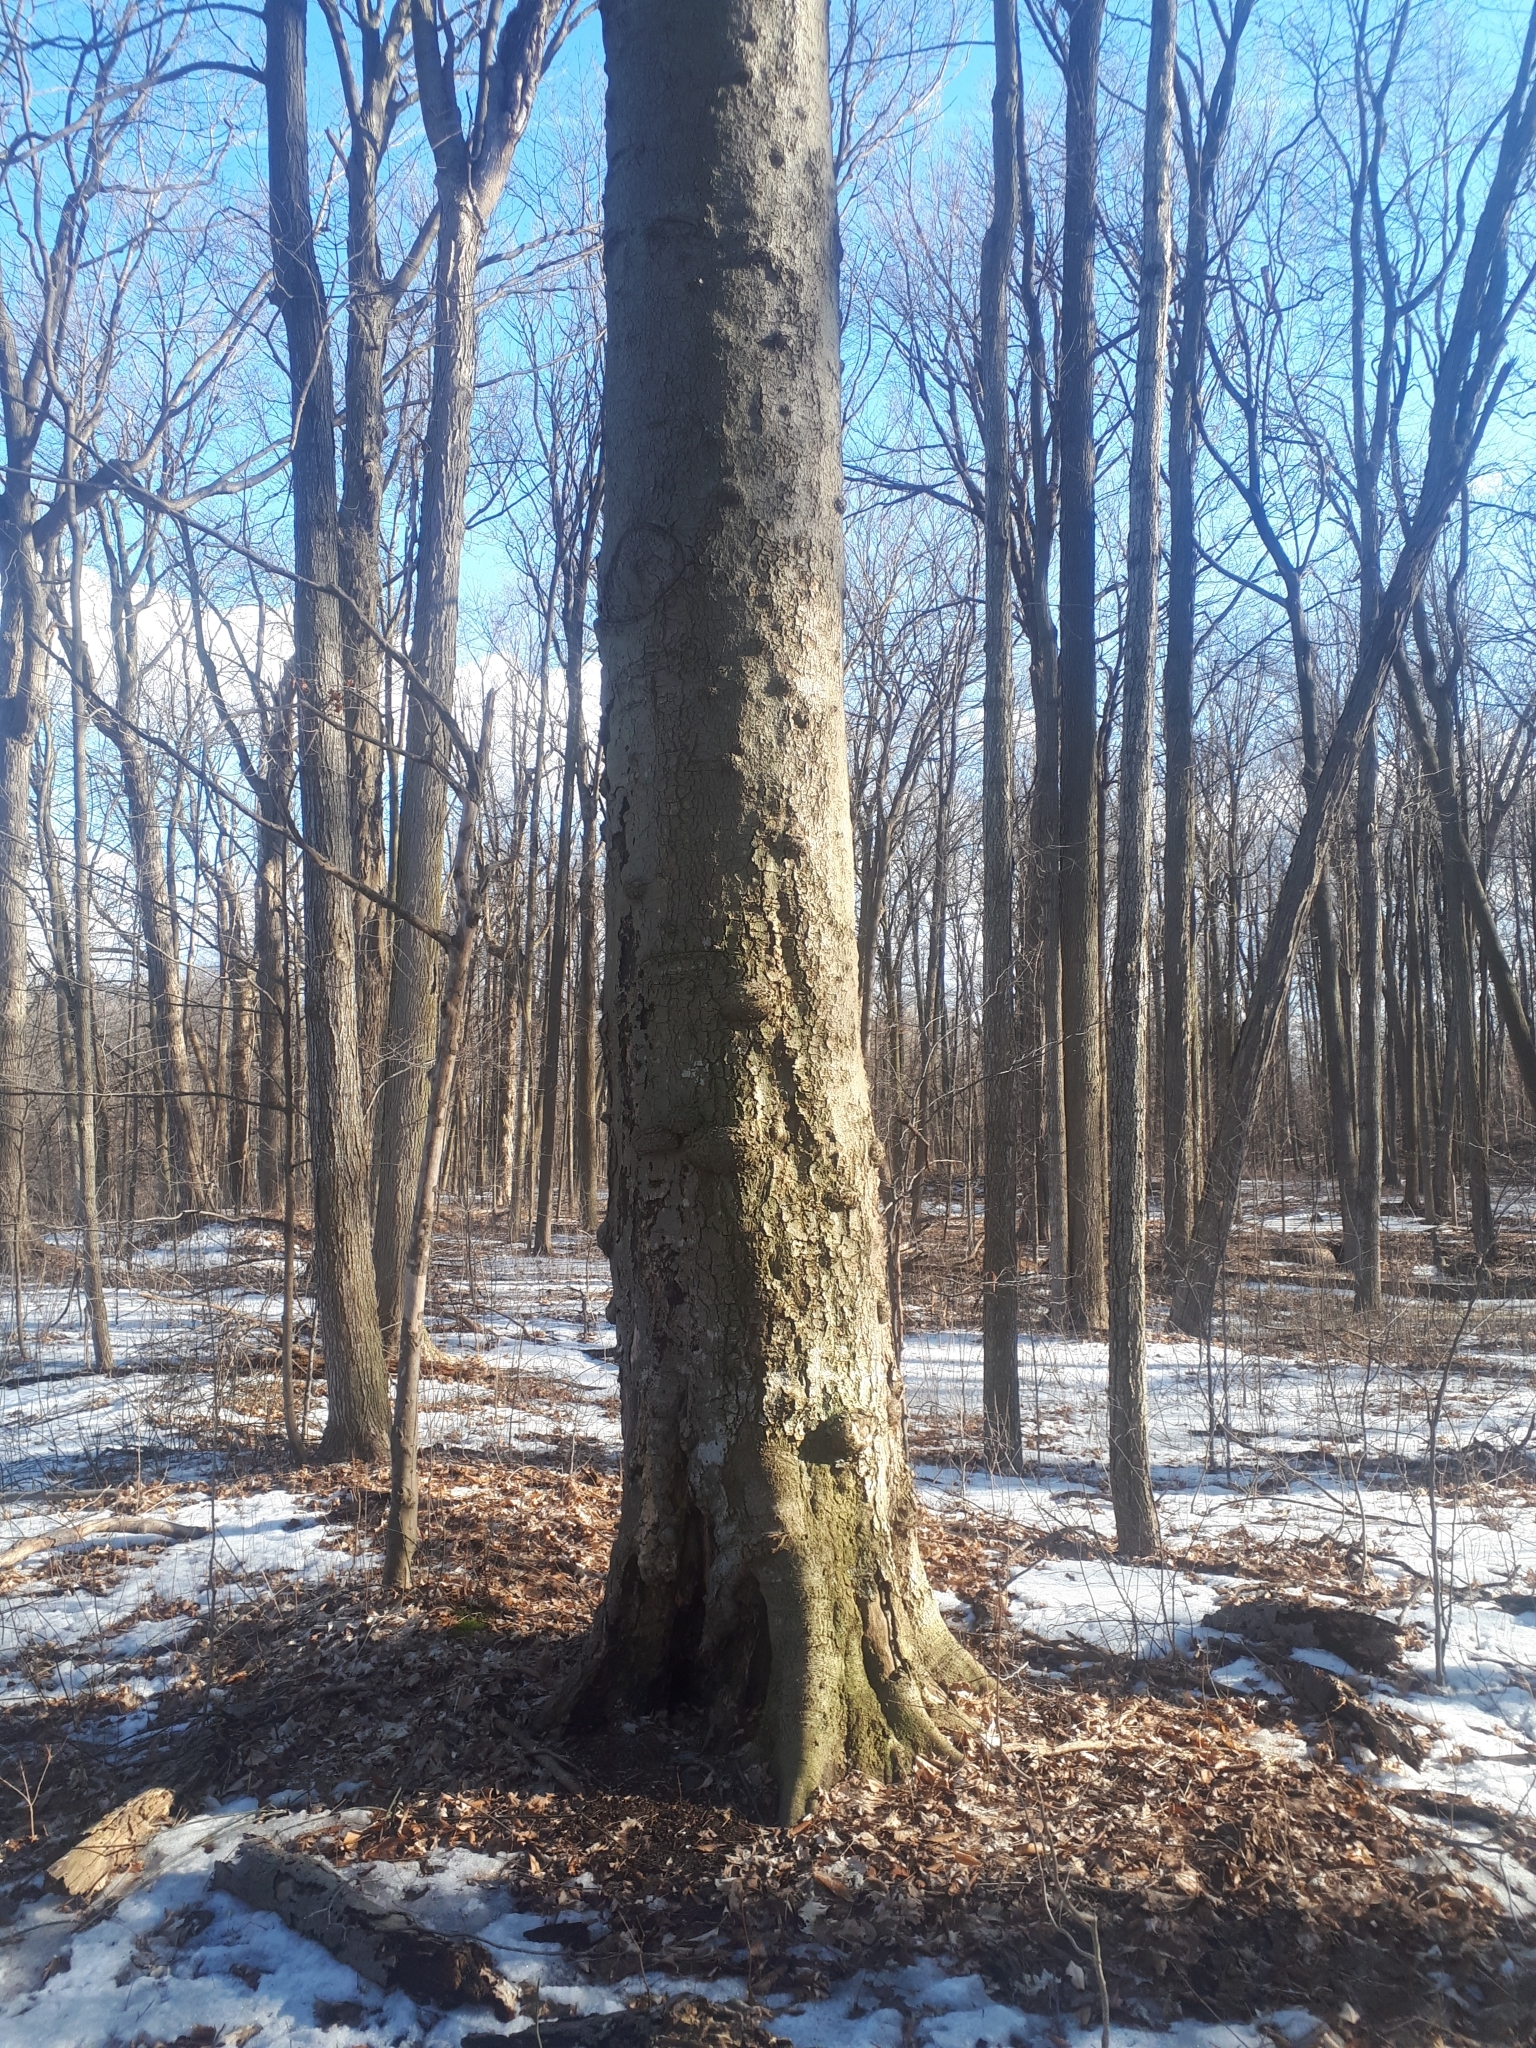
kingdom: Plantae
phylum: Tracheophyta
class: Magnoliopsida
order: Fagales
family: Fagaceae
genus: Fagus
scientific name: Fagus grandifolia
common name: American beech
